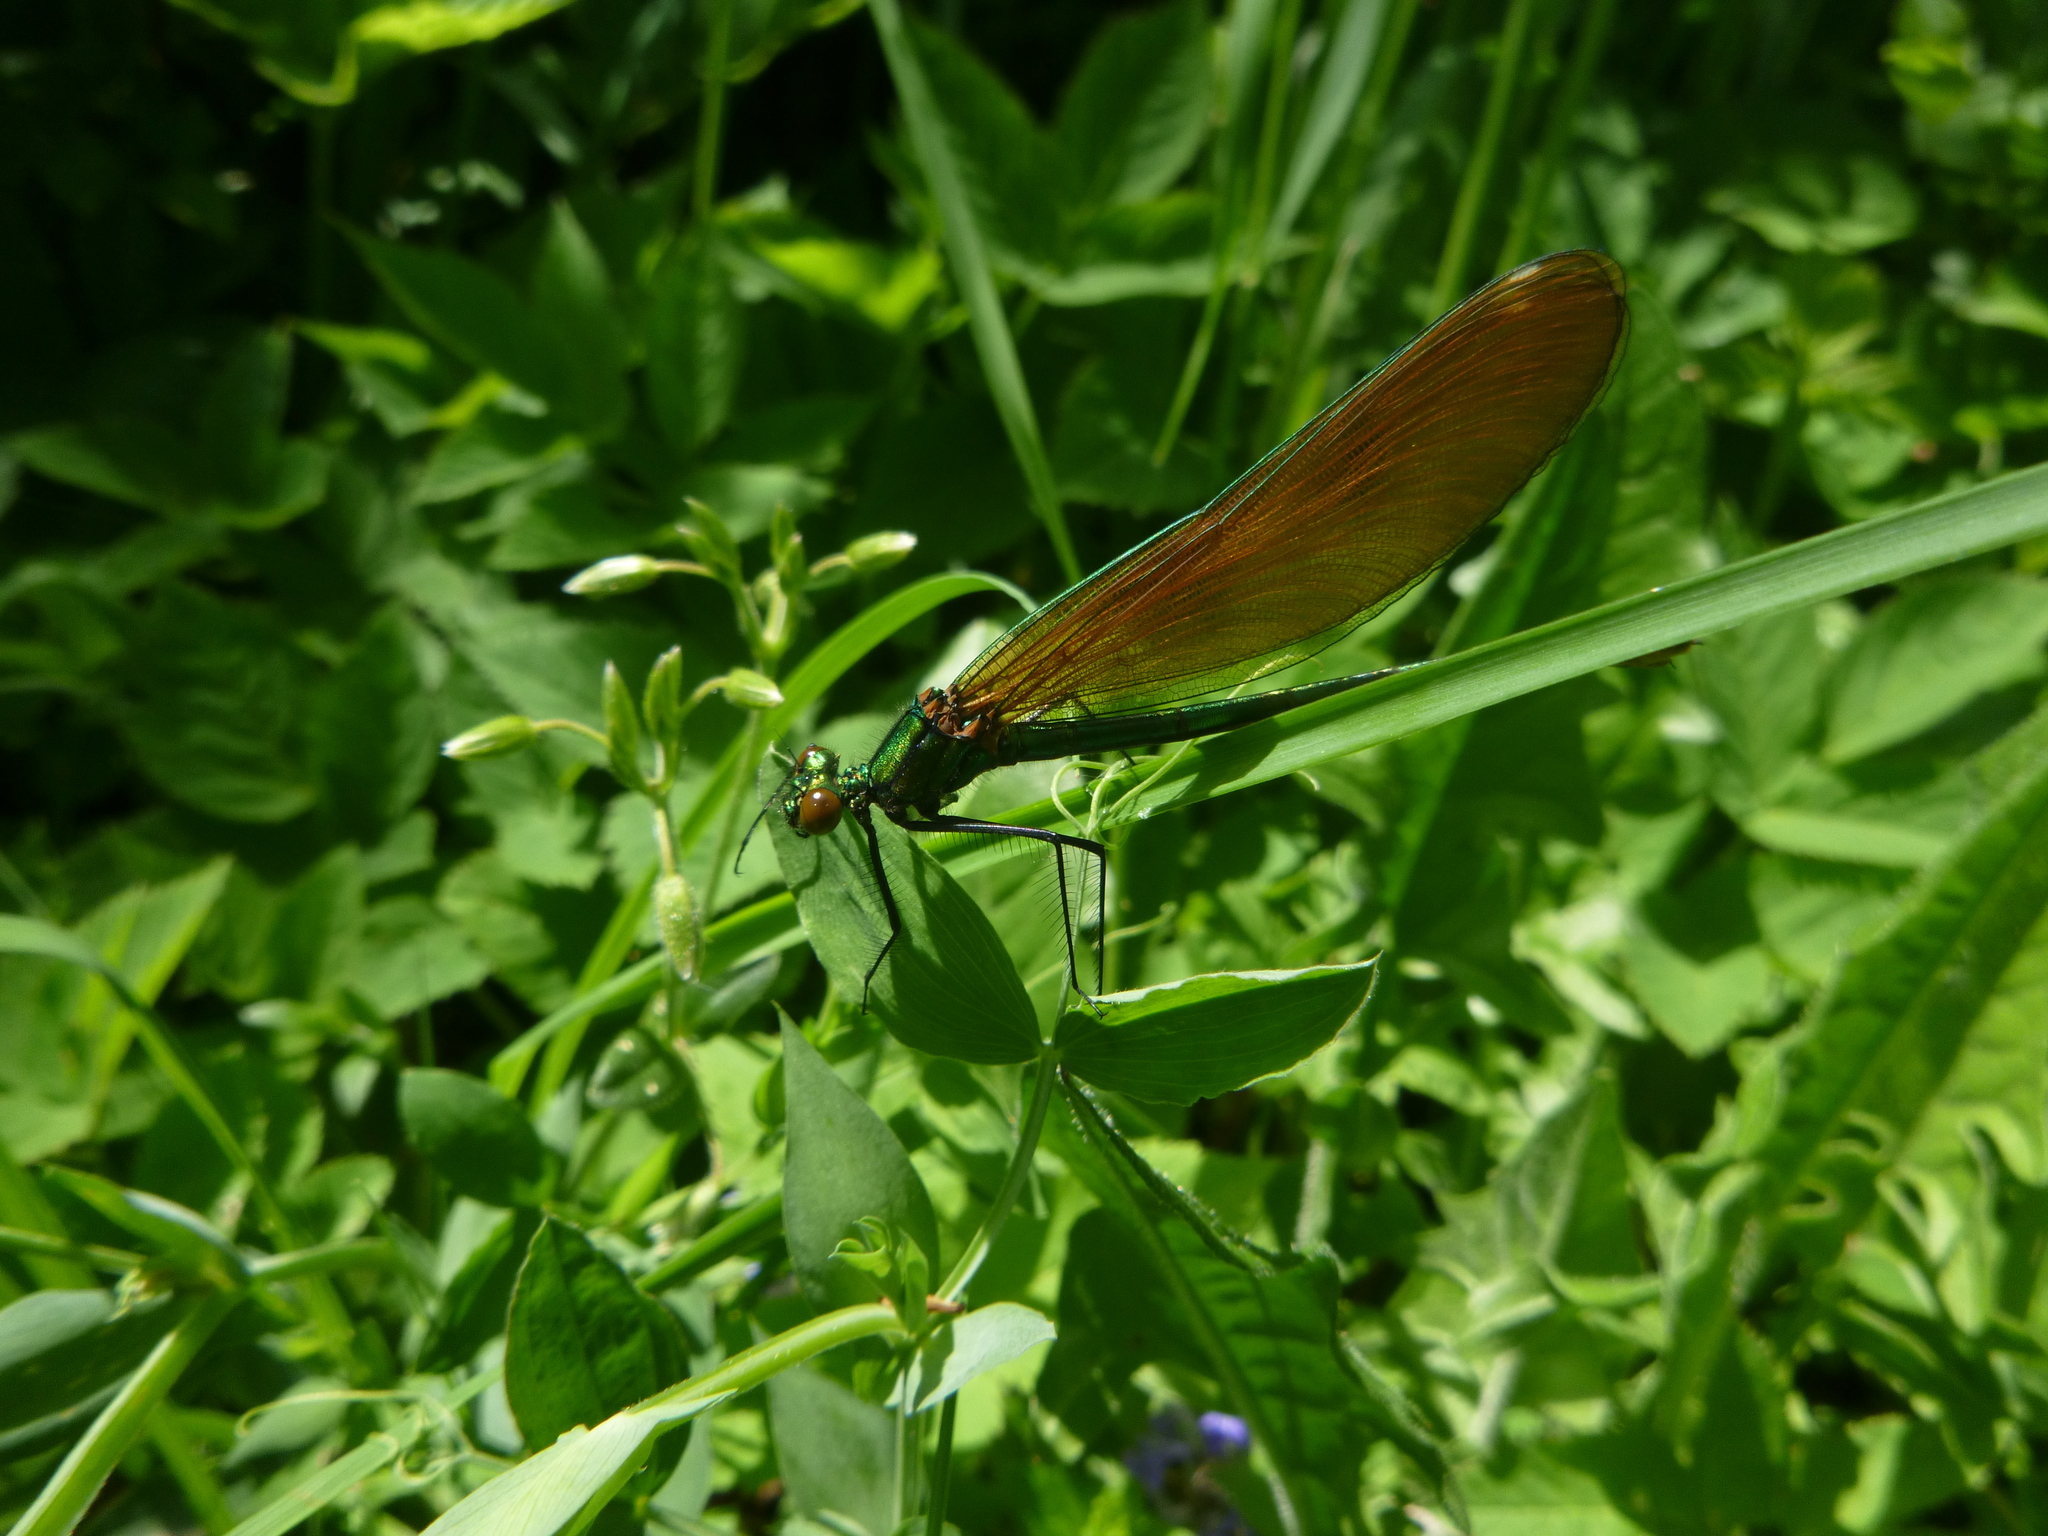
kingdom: Animalia
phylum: Arthropoda
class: Insecta
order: Odonata
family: Calopterygidae
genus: Calopteryx
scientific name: Calopteryx virgo
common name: Beautiful demoiselle
